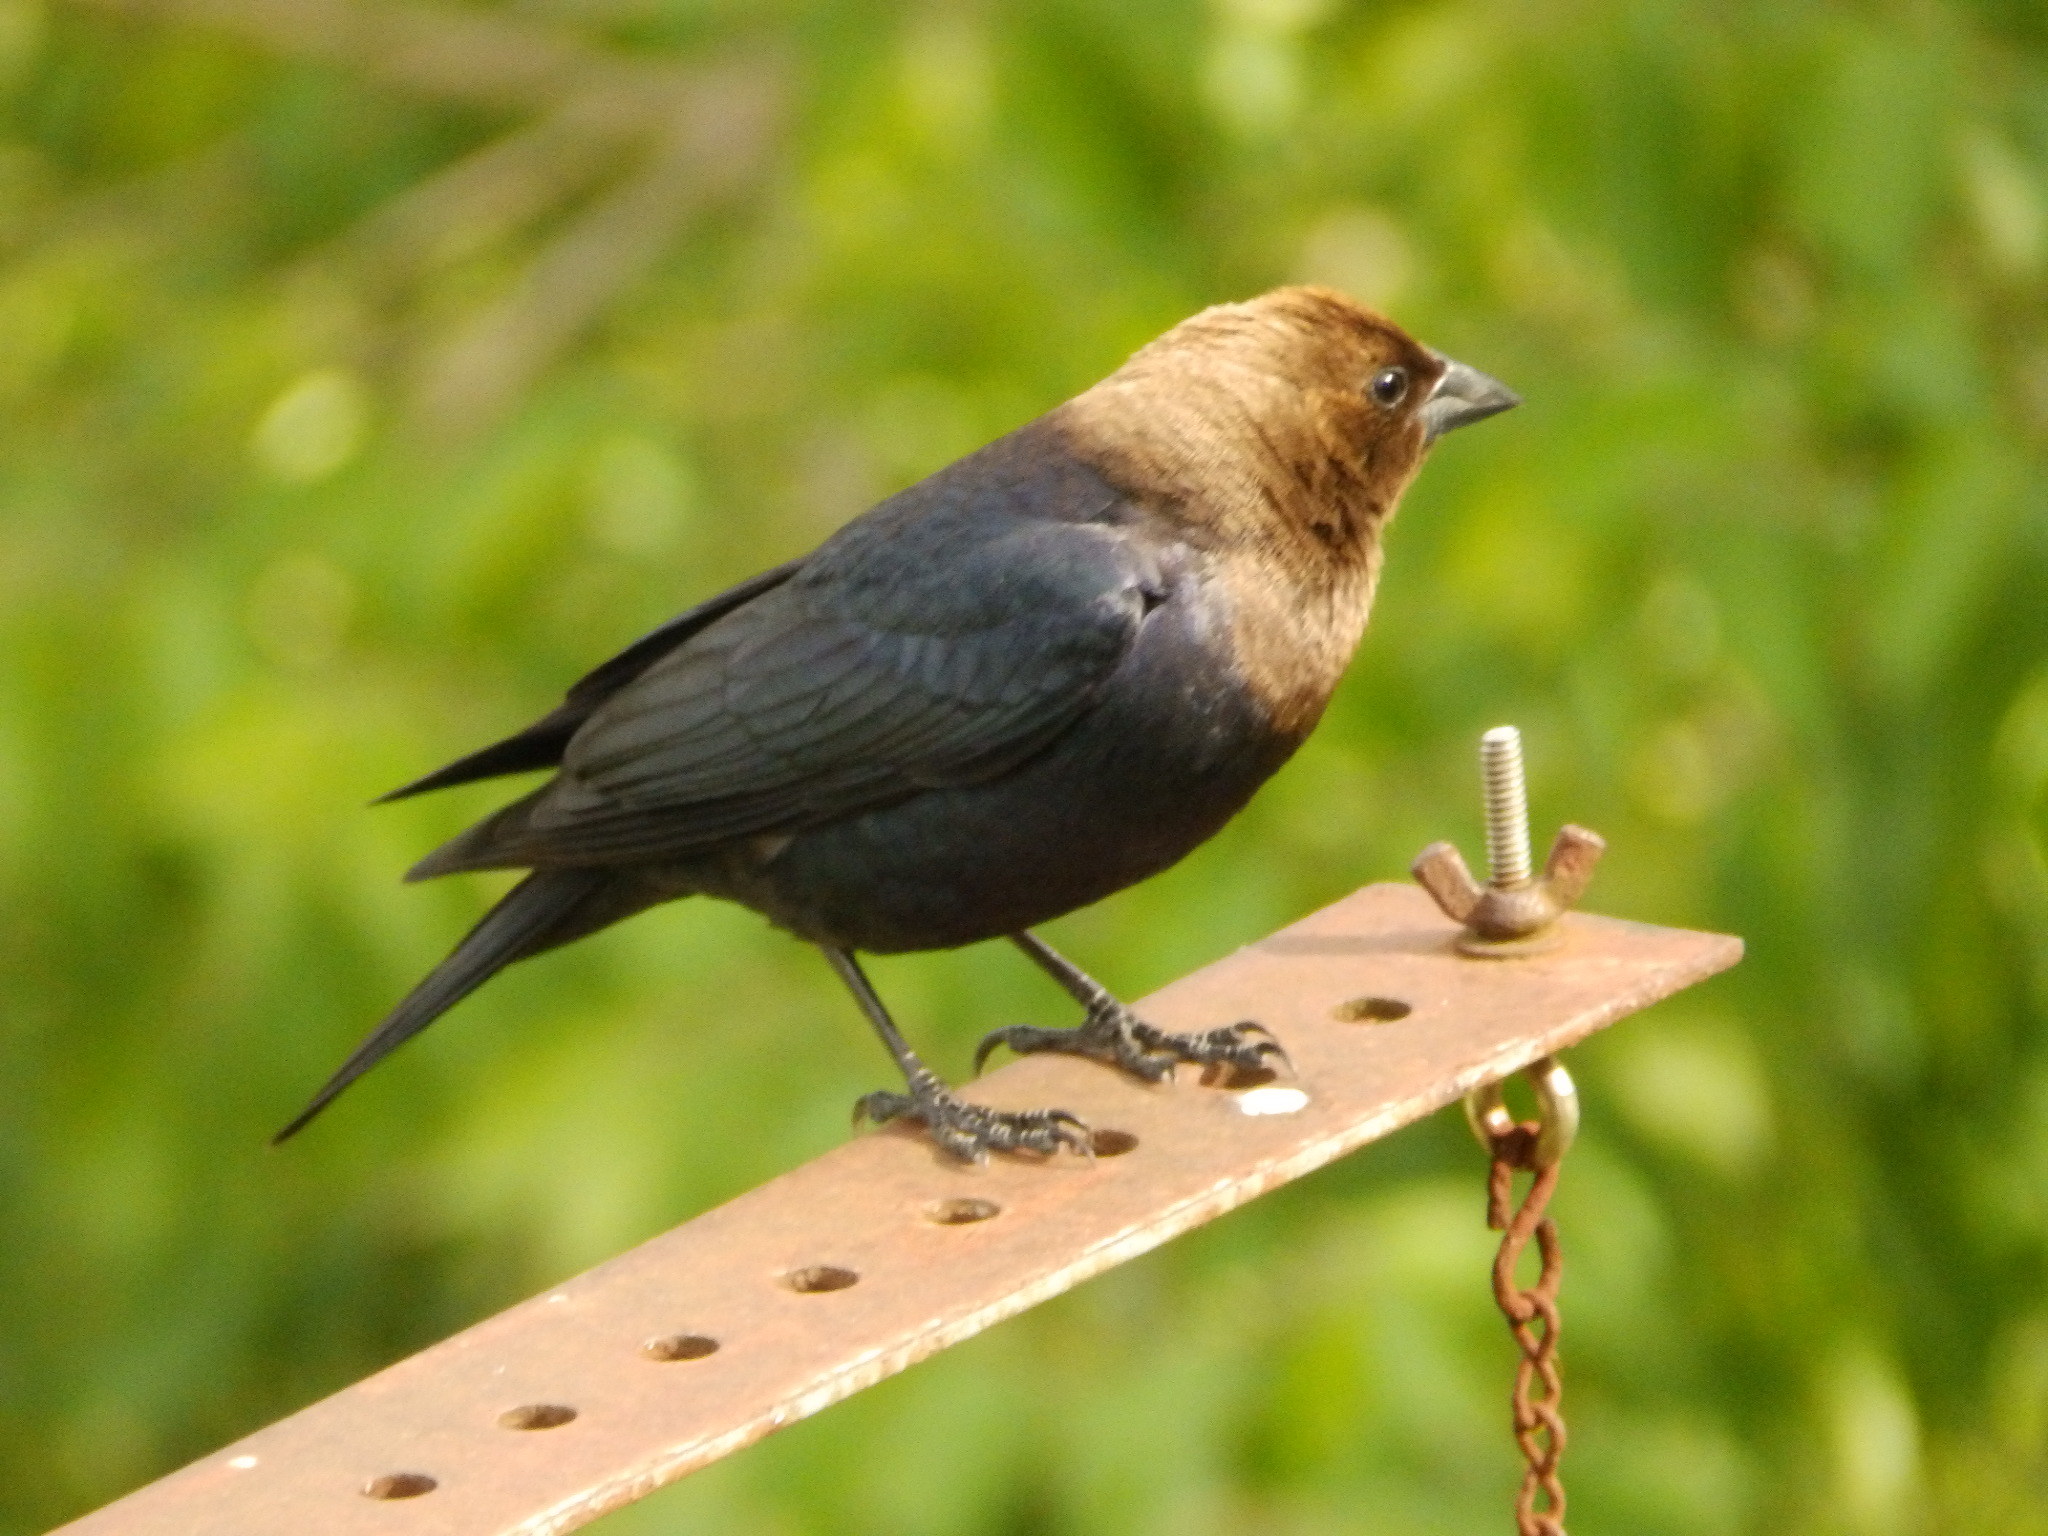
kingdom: Animalia
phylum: Chordata
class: Aves
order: Passeriformes
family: Icteridae
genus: Molothrus
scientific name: Molothrus ater
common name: Brown-headed cowbird
